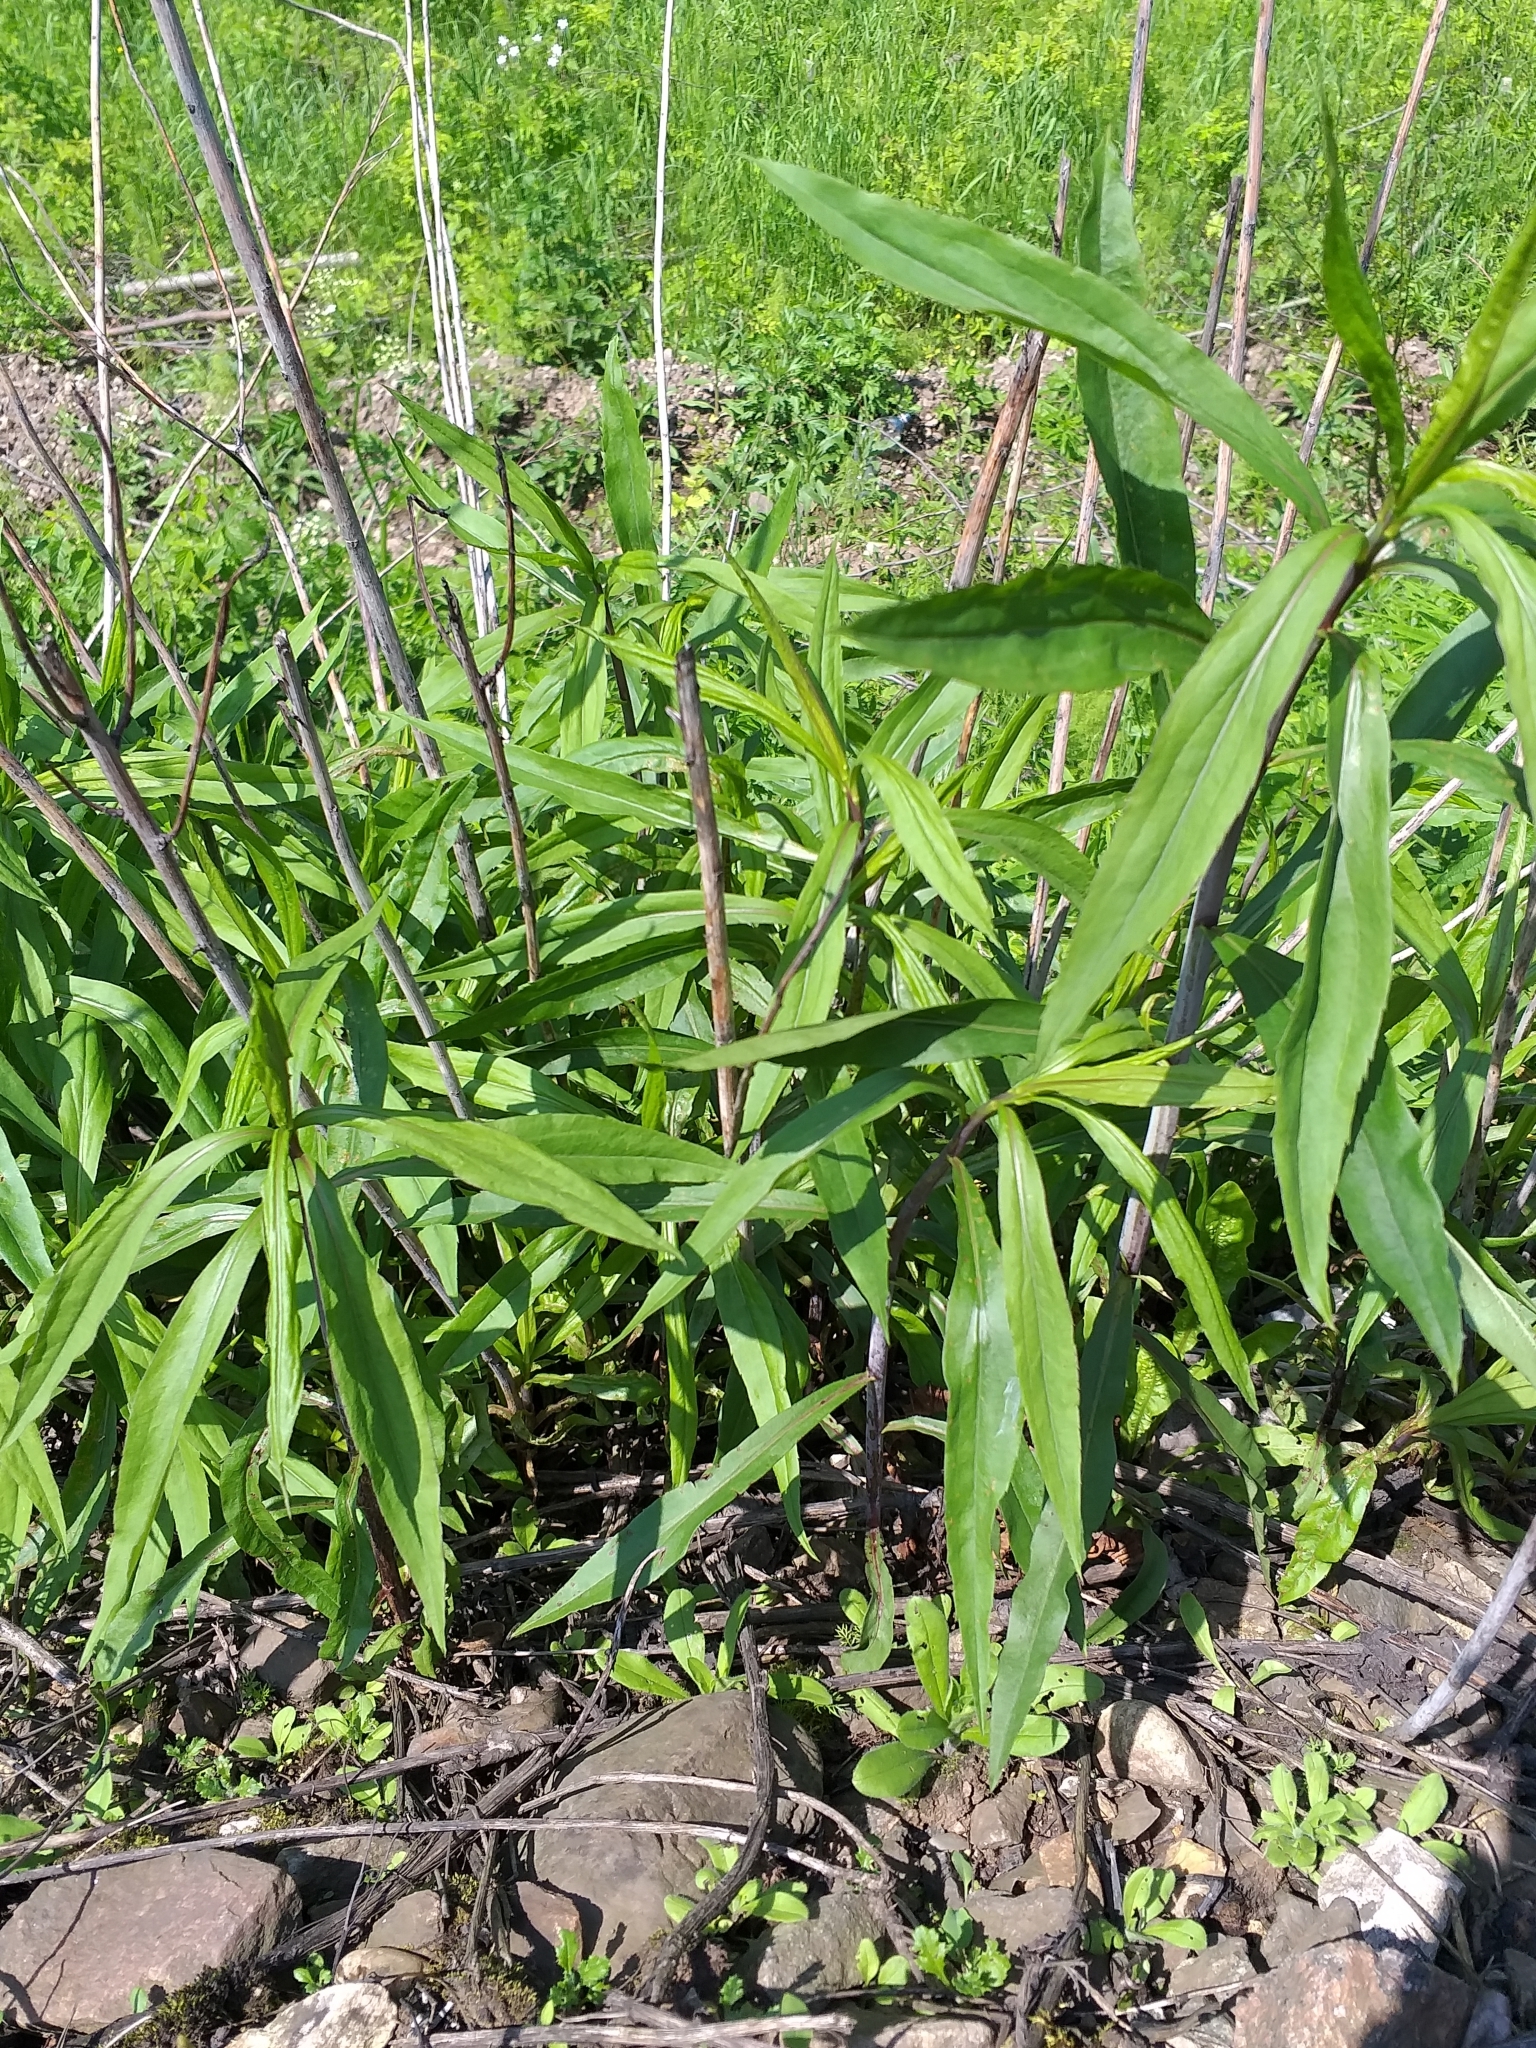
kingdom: Plantae
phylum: Tracheophyta
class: Magnoliopsida
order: Asterales
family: Asteraceae
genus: Solidago
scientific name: Solidago gigantea
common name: Giant goldenrod
